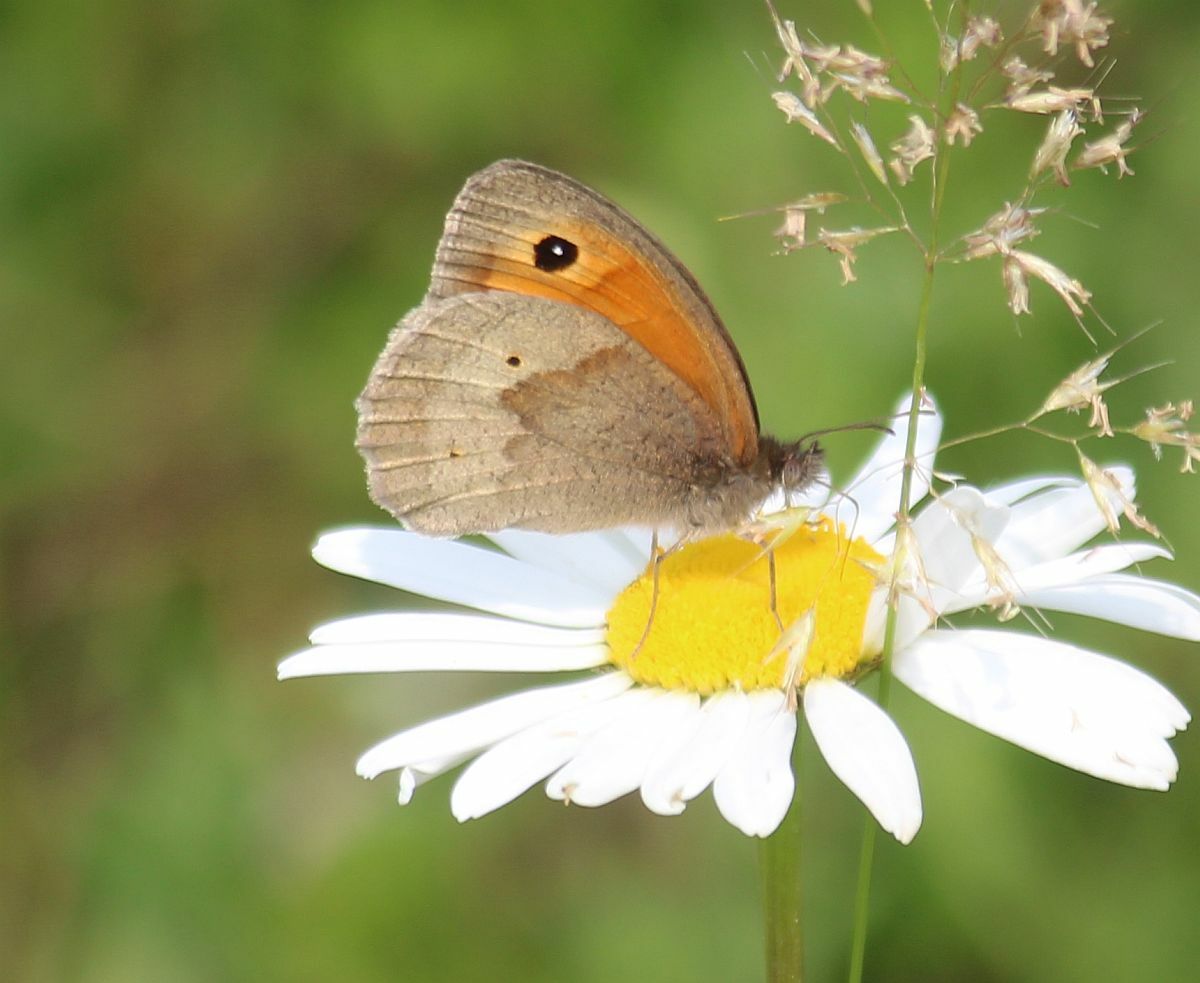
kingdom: Animalia
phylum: Arthropoda
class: Insecta
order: Lepidoptera
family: Nymphalidae
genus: Maniola
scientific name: Maniola jurtina
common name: Meadow brown
